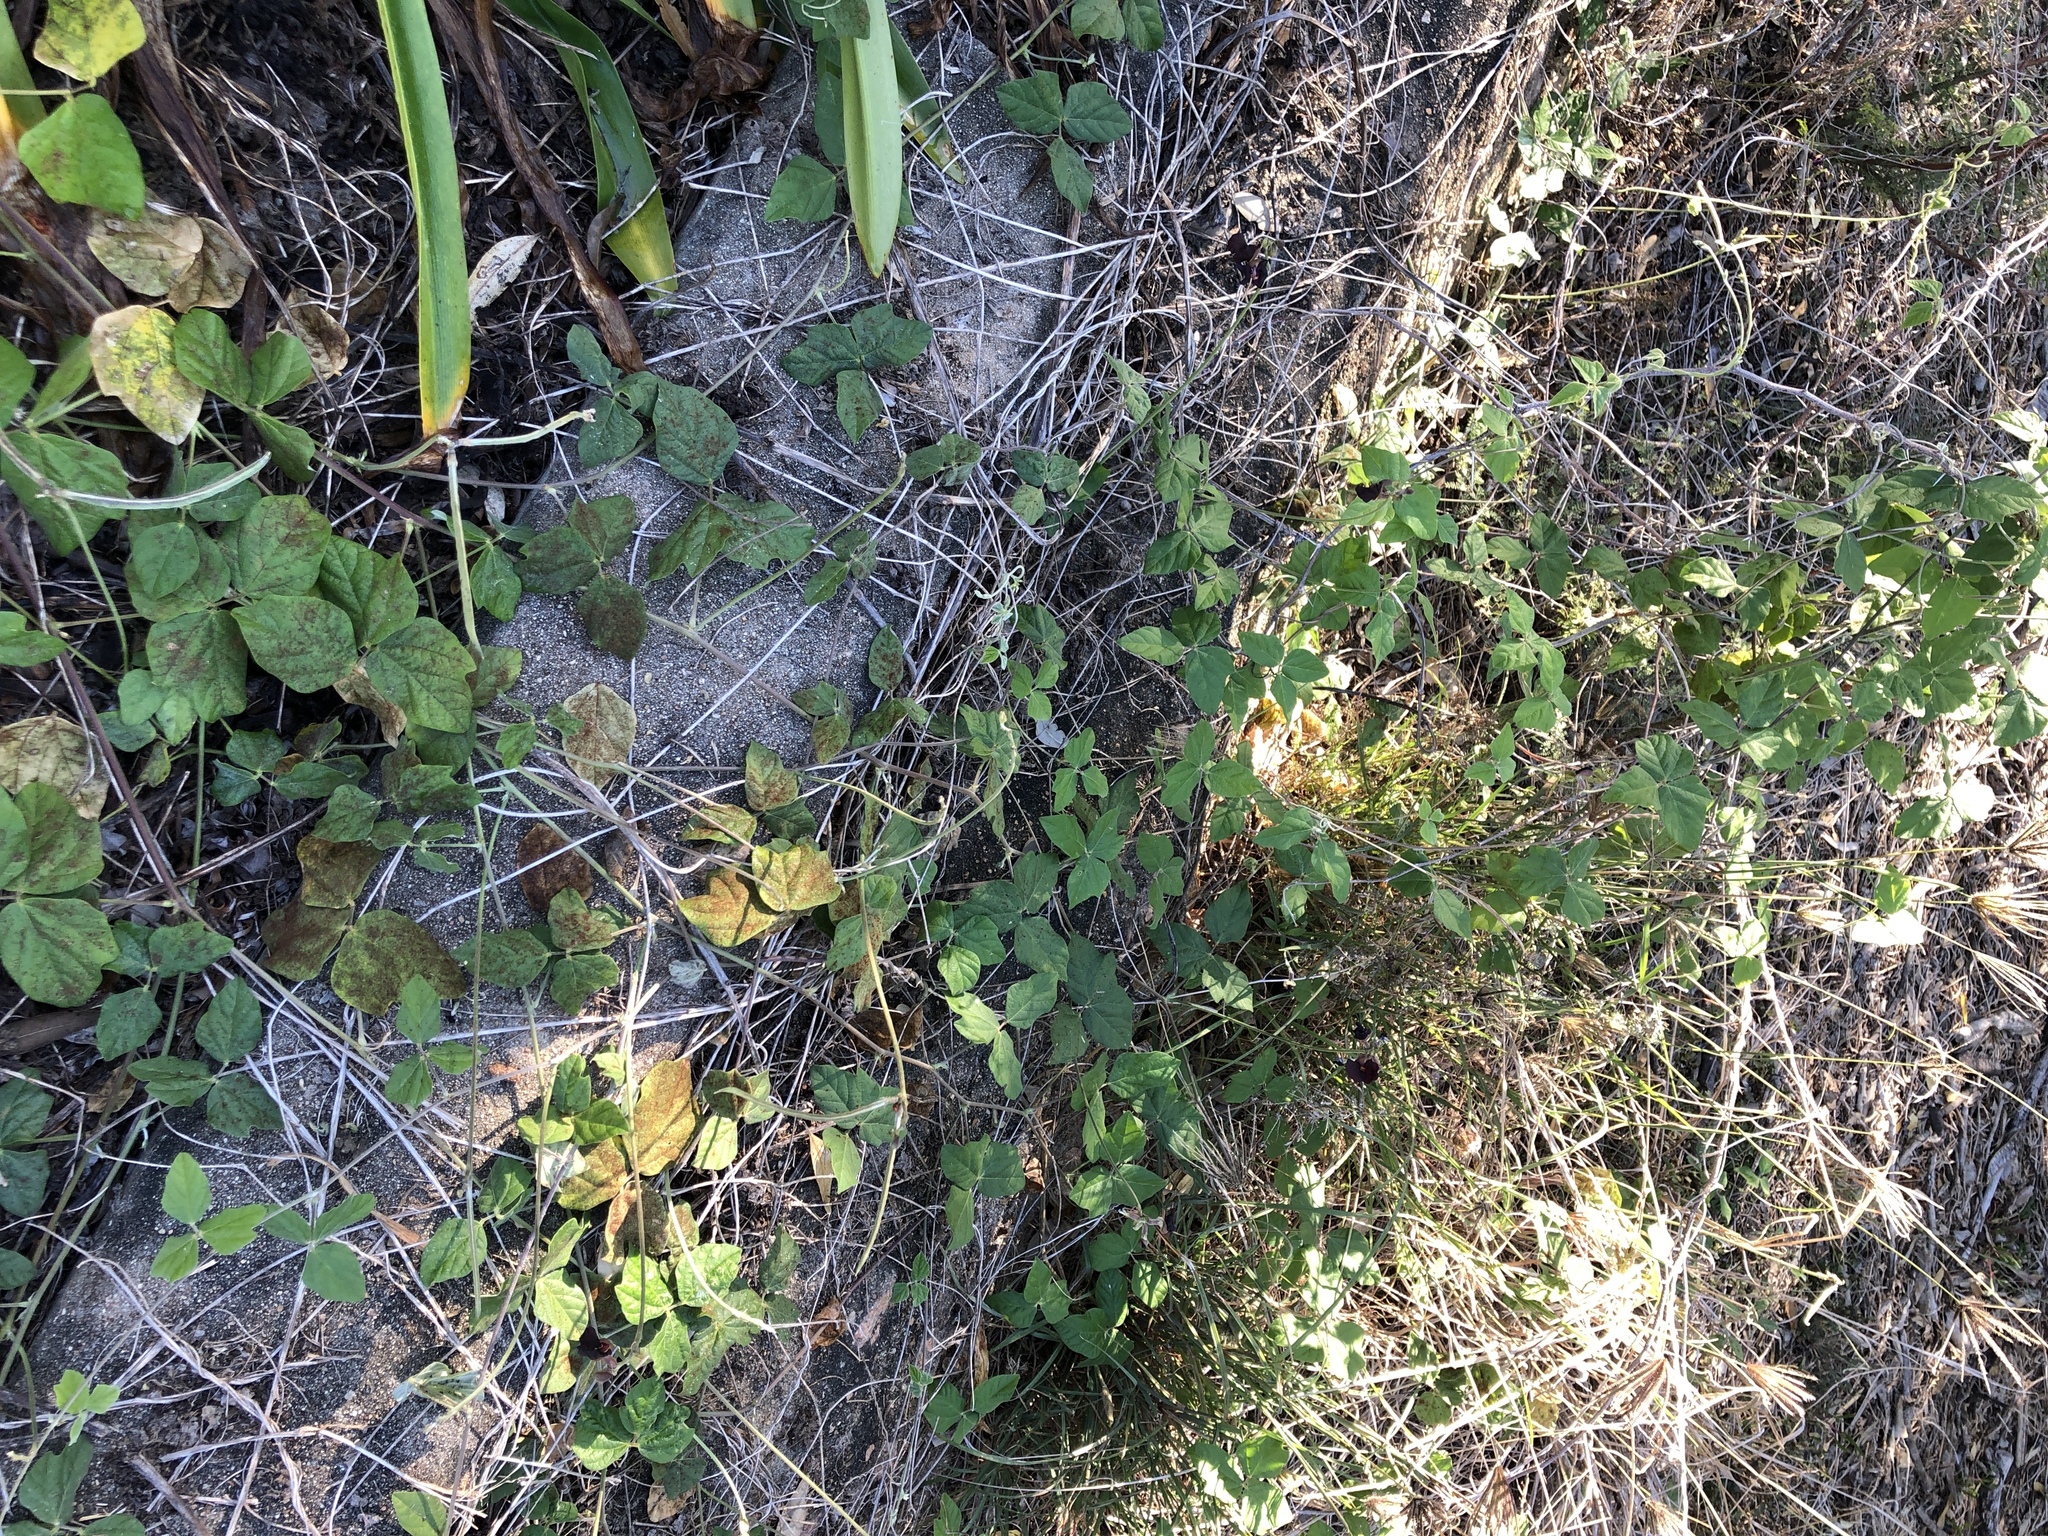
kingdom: Plantae
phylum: Tracheophyta
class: Magnoliopsida
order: Fabales
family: Fabaceae
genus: Macroptilium
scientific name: Macroptilium atropurpureum
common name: Purple bushbean
